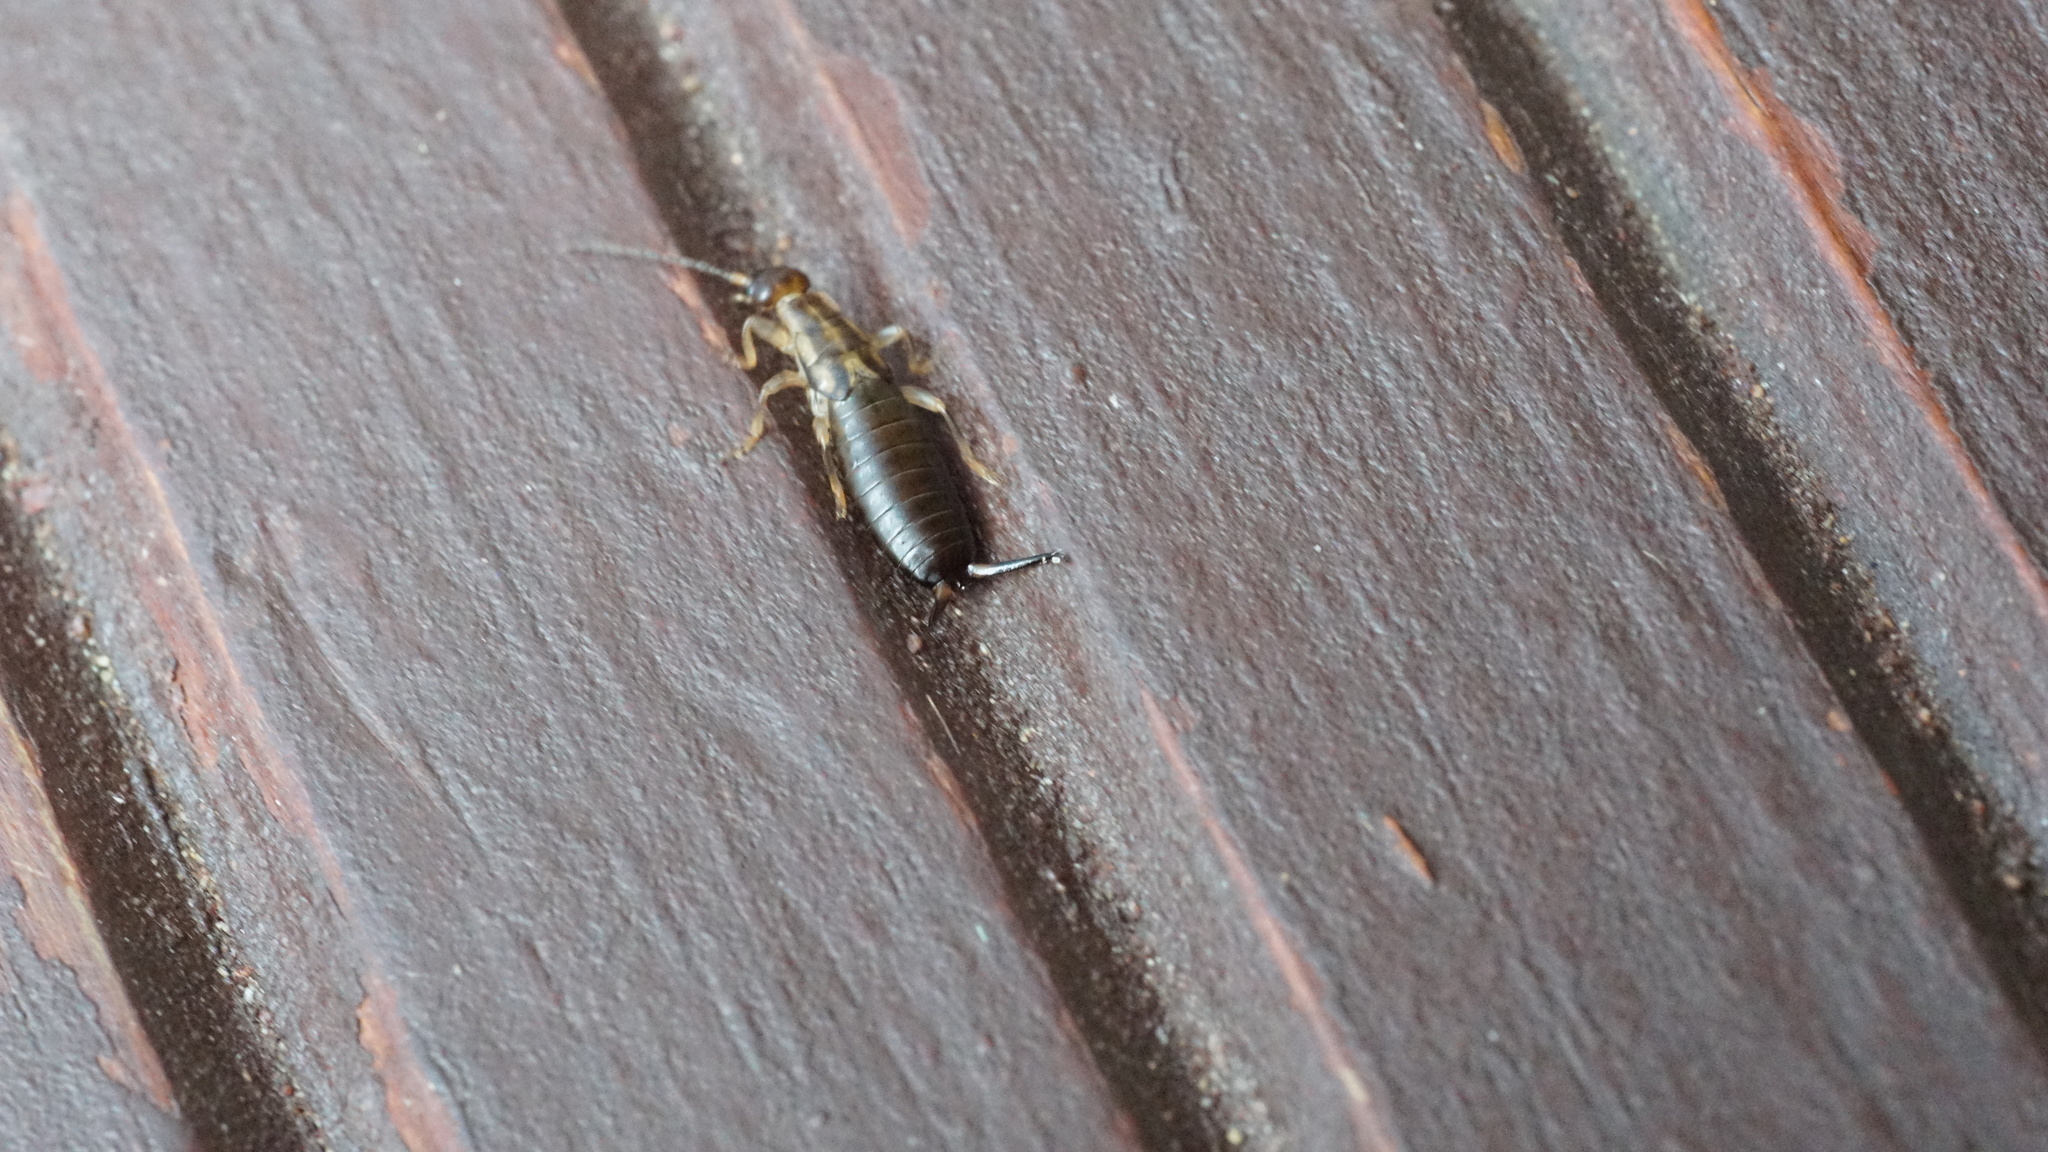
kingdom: Animalia
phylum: Arthropoda
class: Insecta
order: Dermaptera
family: Forficulidae
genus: Forficula
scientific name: Forficula
